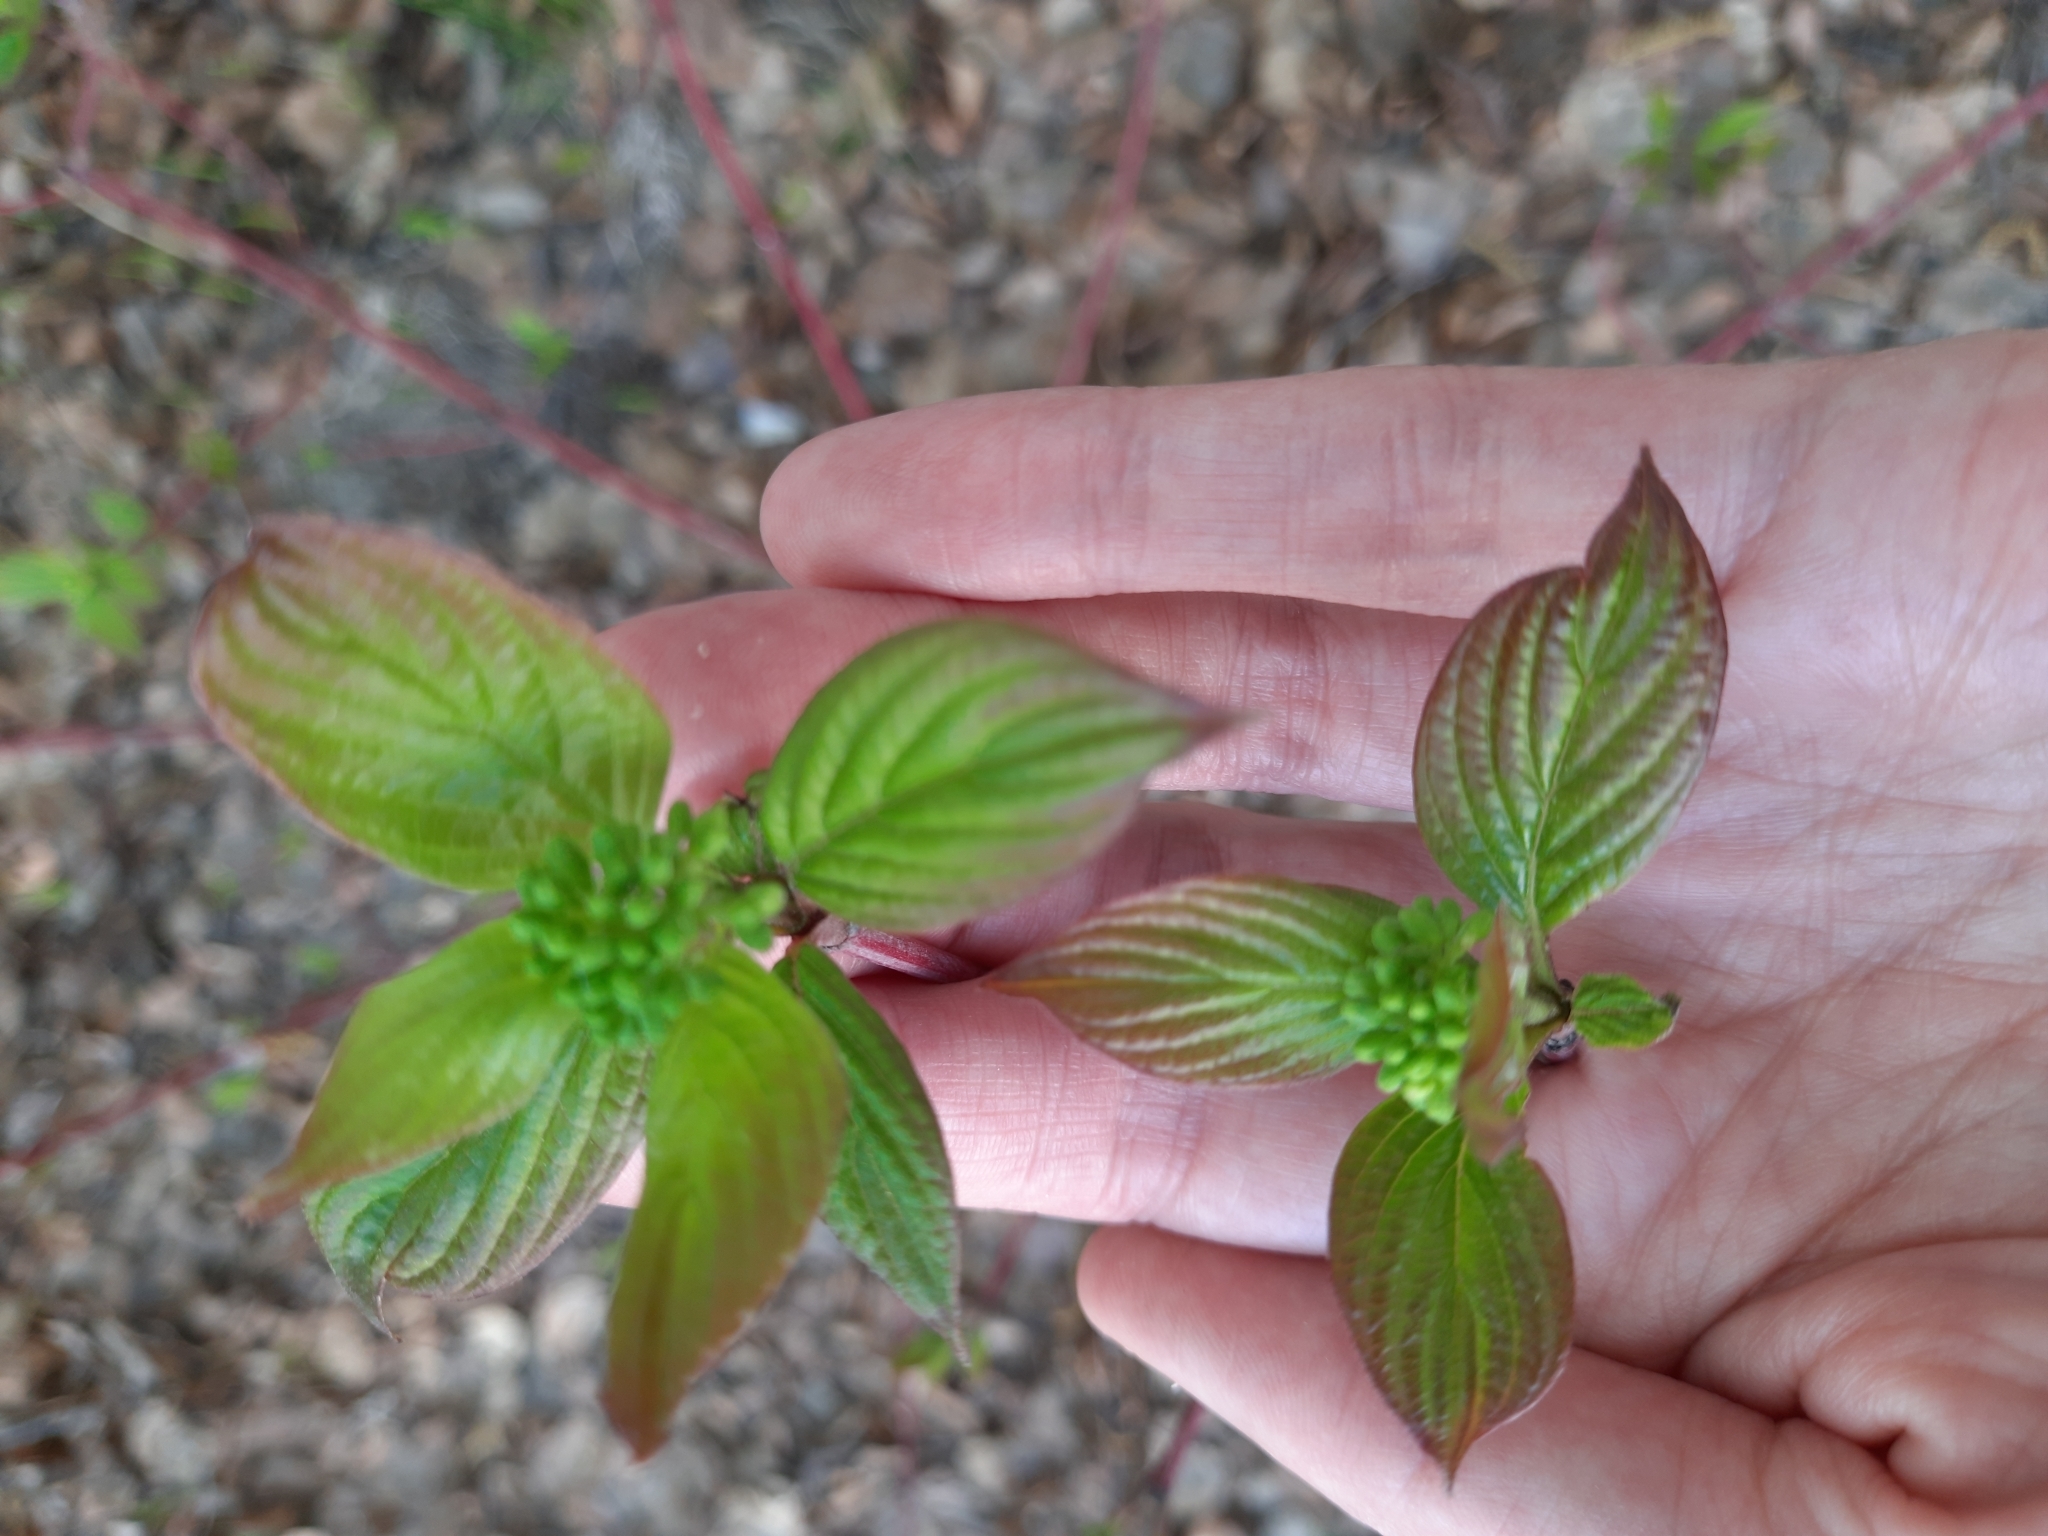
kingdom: Plantae
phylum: Tracheophyta
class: Magnoliopsida
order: Cornales
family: Cornaceae
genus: Cornus
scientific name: Cornus alba
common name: White dogwood
